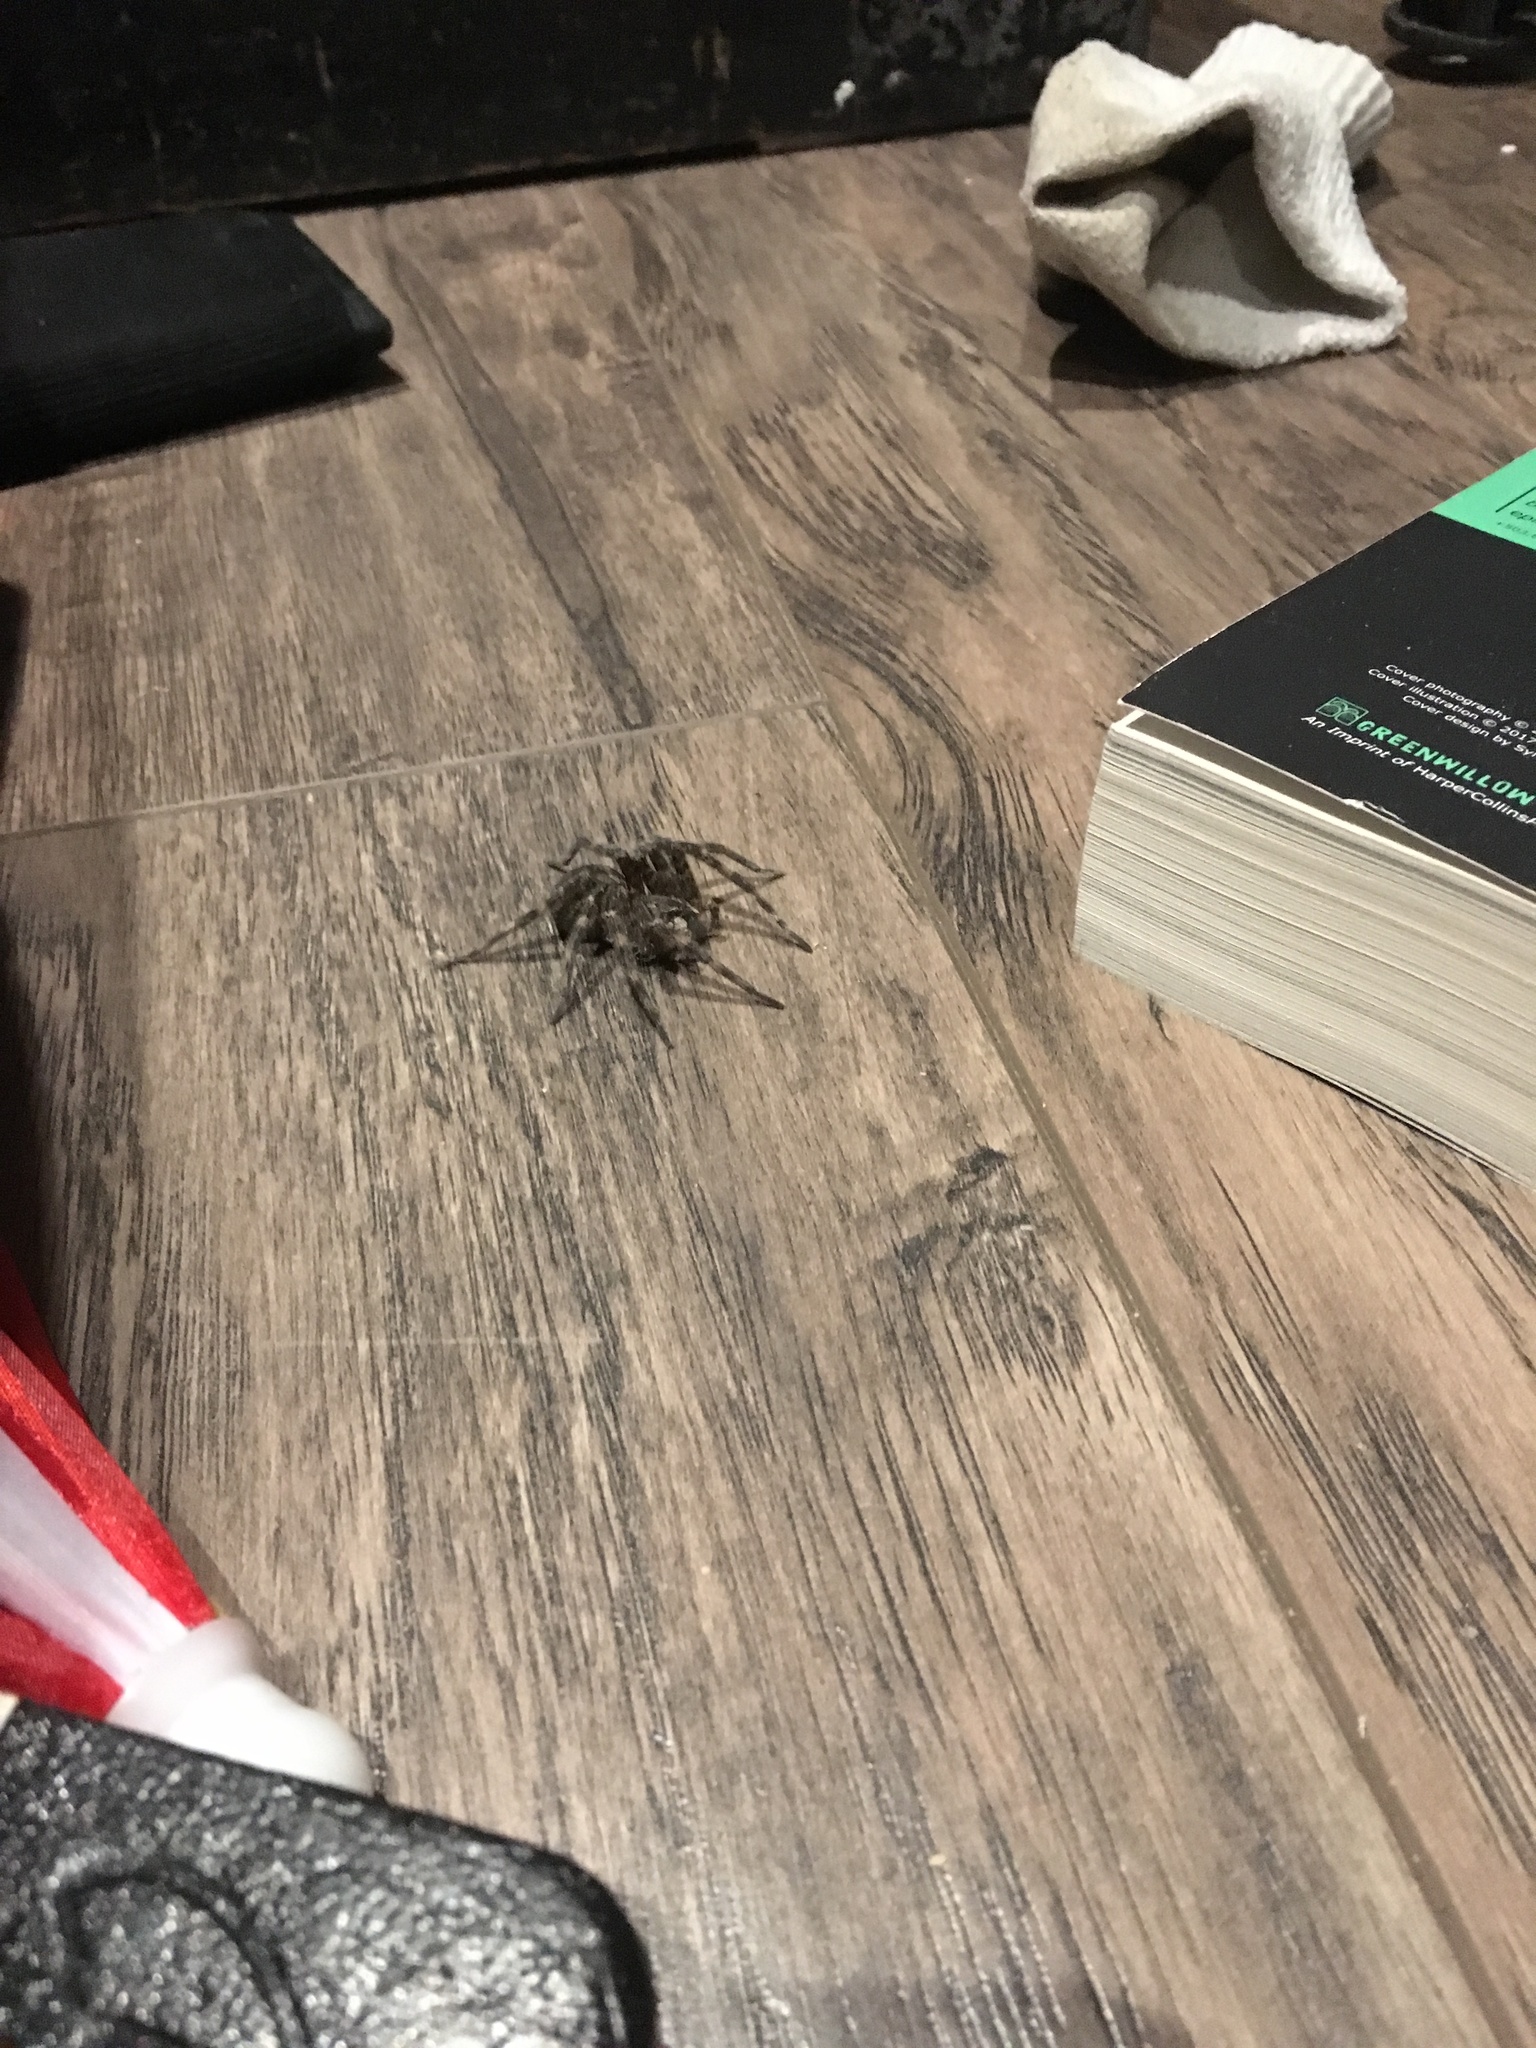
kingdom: Animalia
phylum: Arthropoda
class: Arachnida
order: Araneae
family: Pisauridae
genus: Dolomedes
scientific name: Dolomedes tenebrosus
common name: Dark fishing spider
